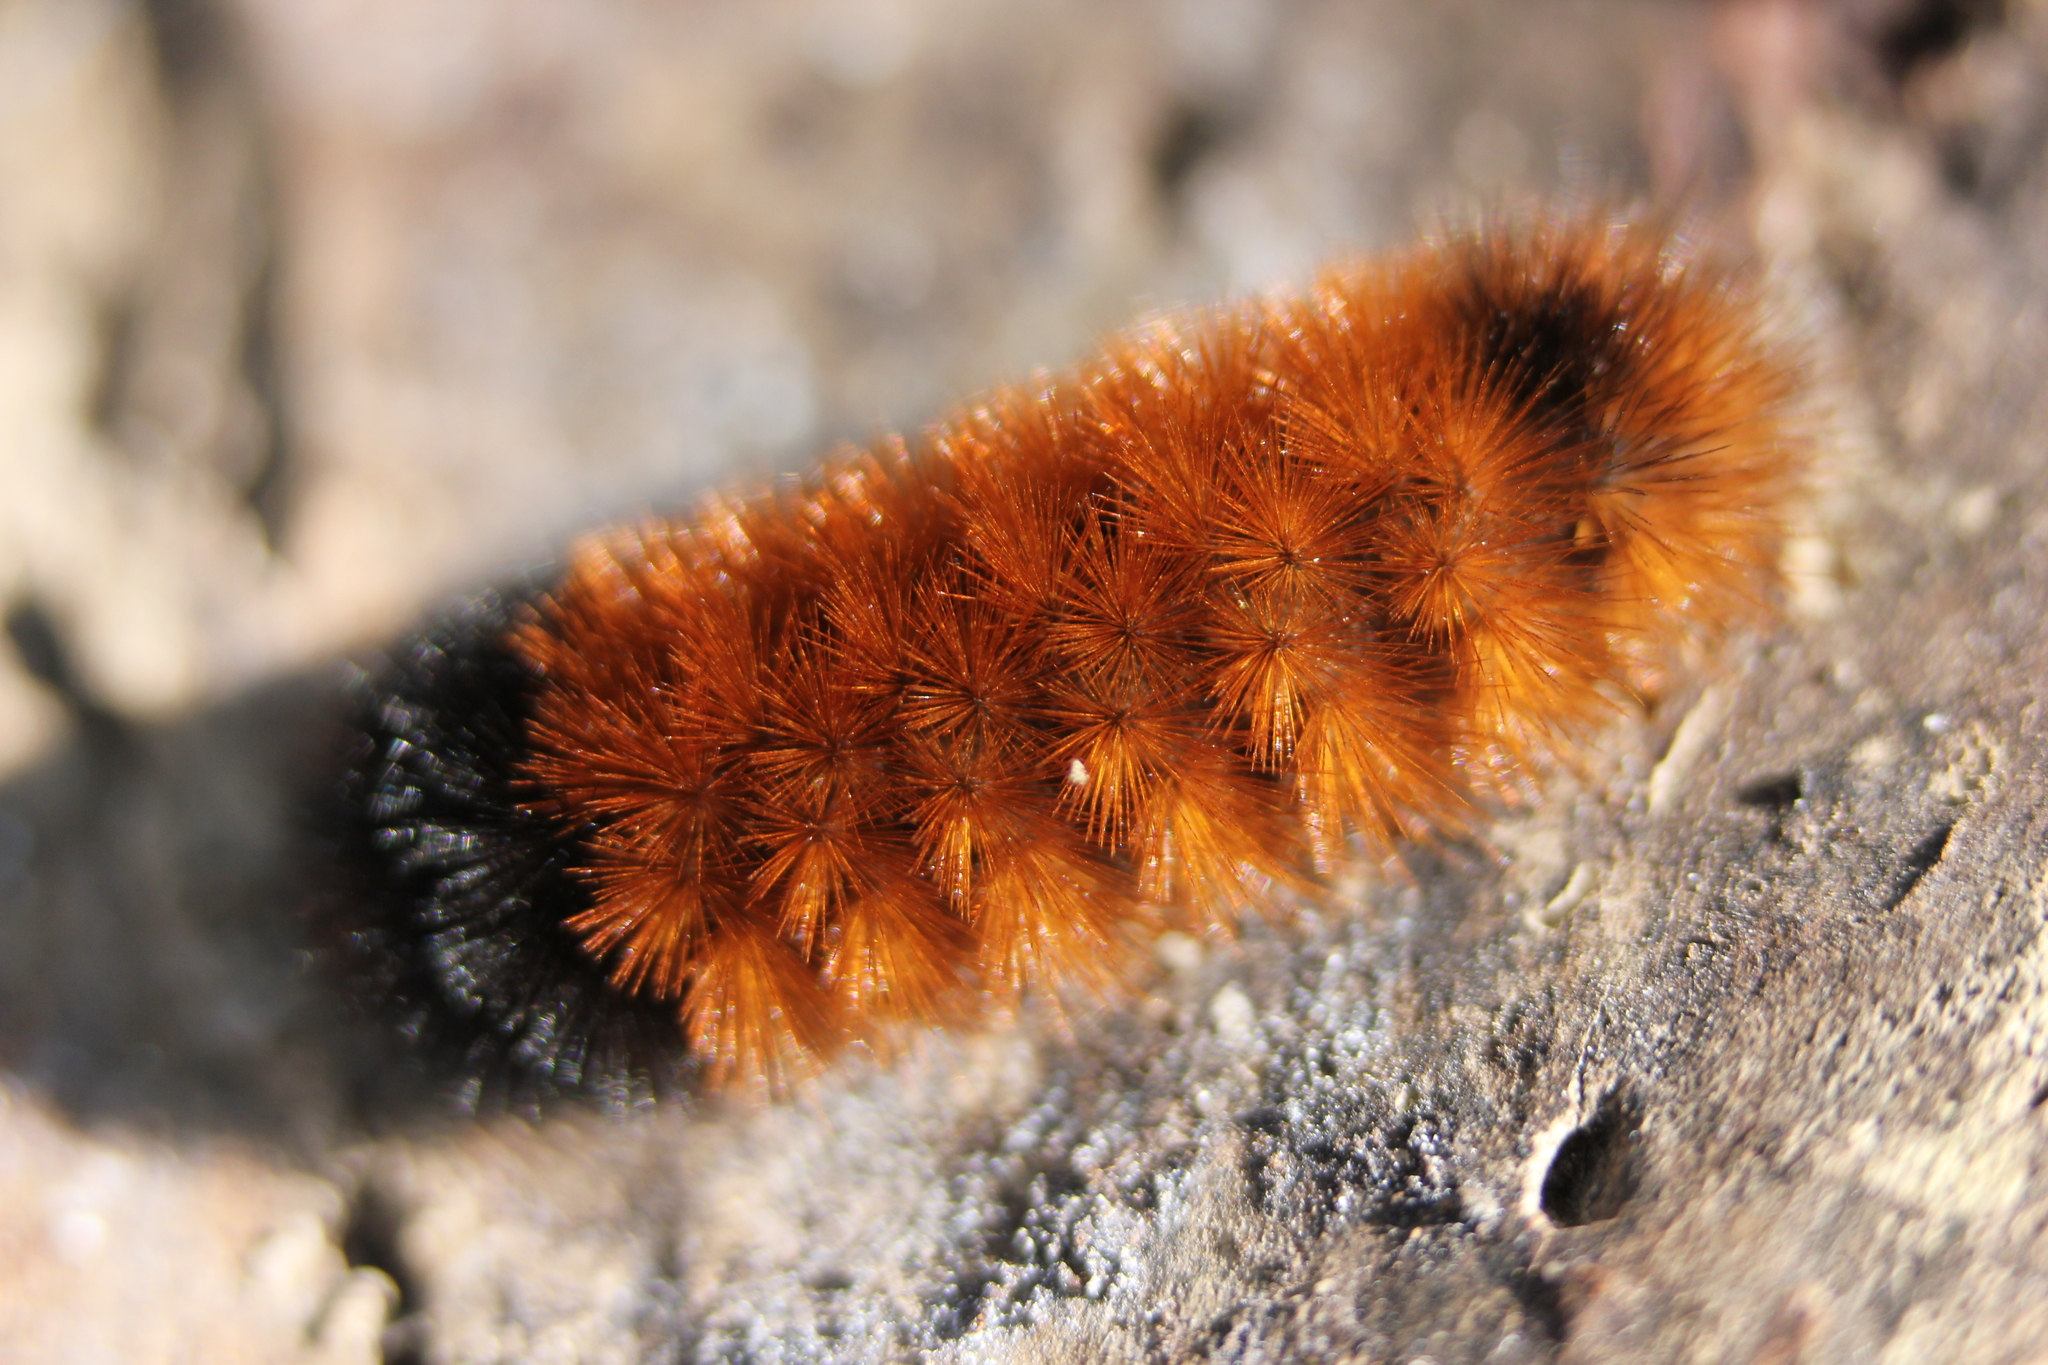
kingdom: Animalia
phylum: Arthropoda
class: Insecta
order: Lepidoptera
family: Erebidae
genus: Pyrrharctia
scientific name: Pyrrharctia isabella
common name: Isabella tiger moth
